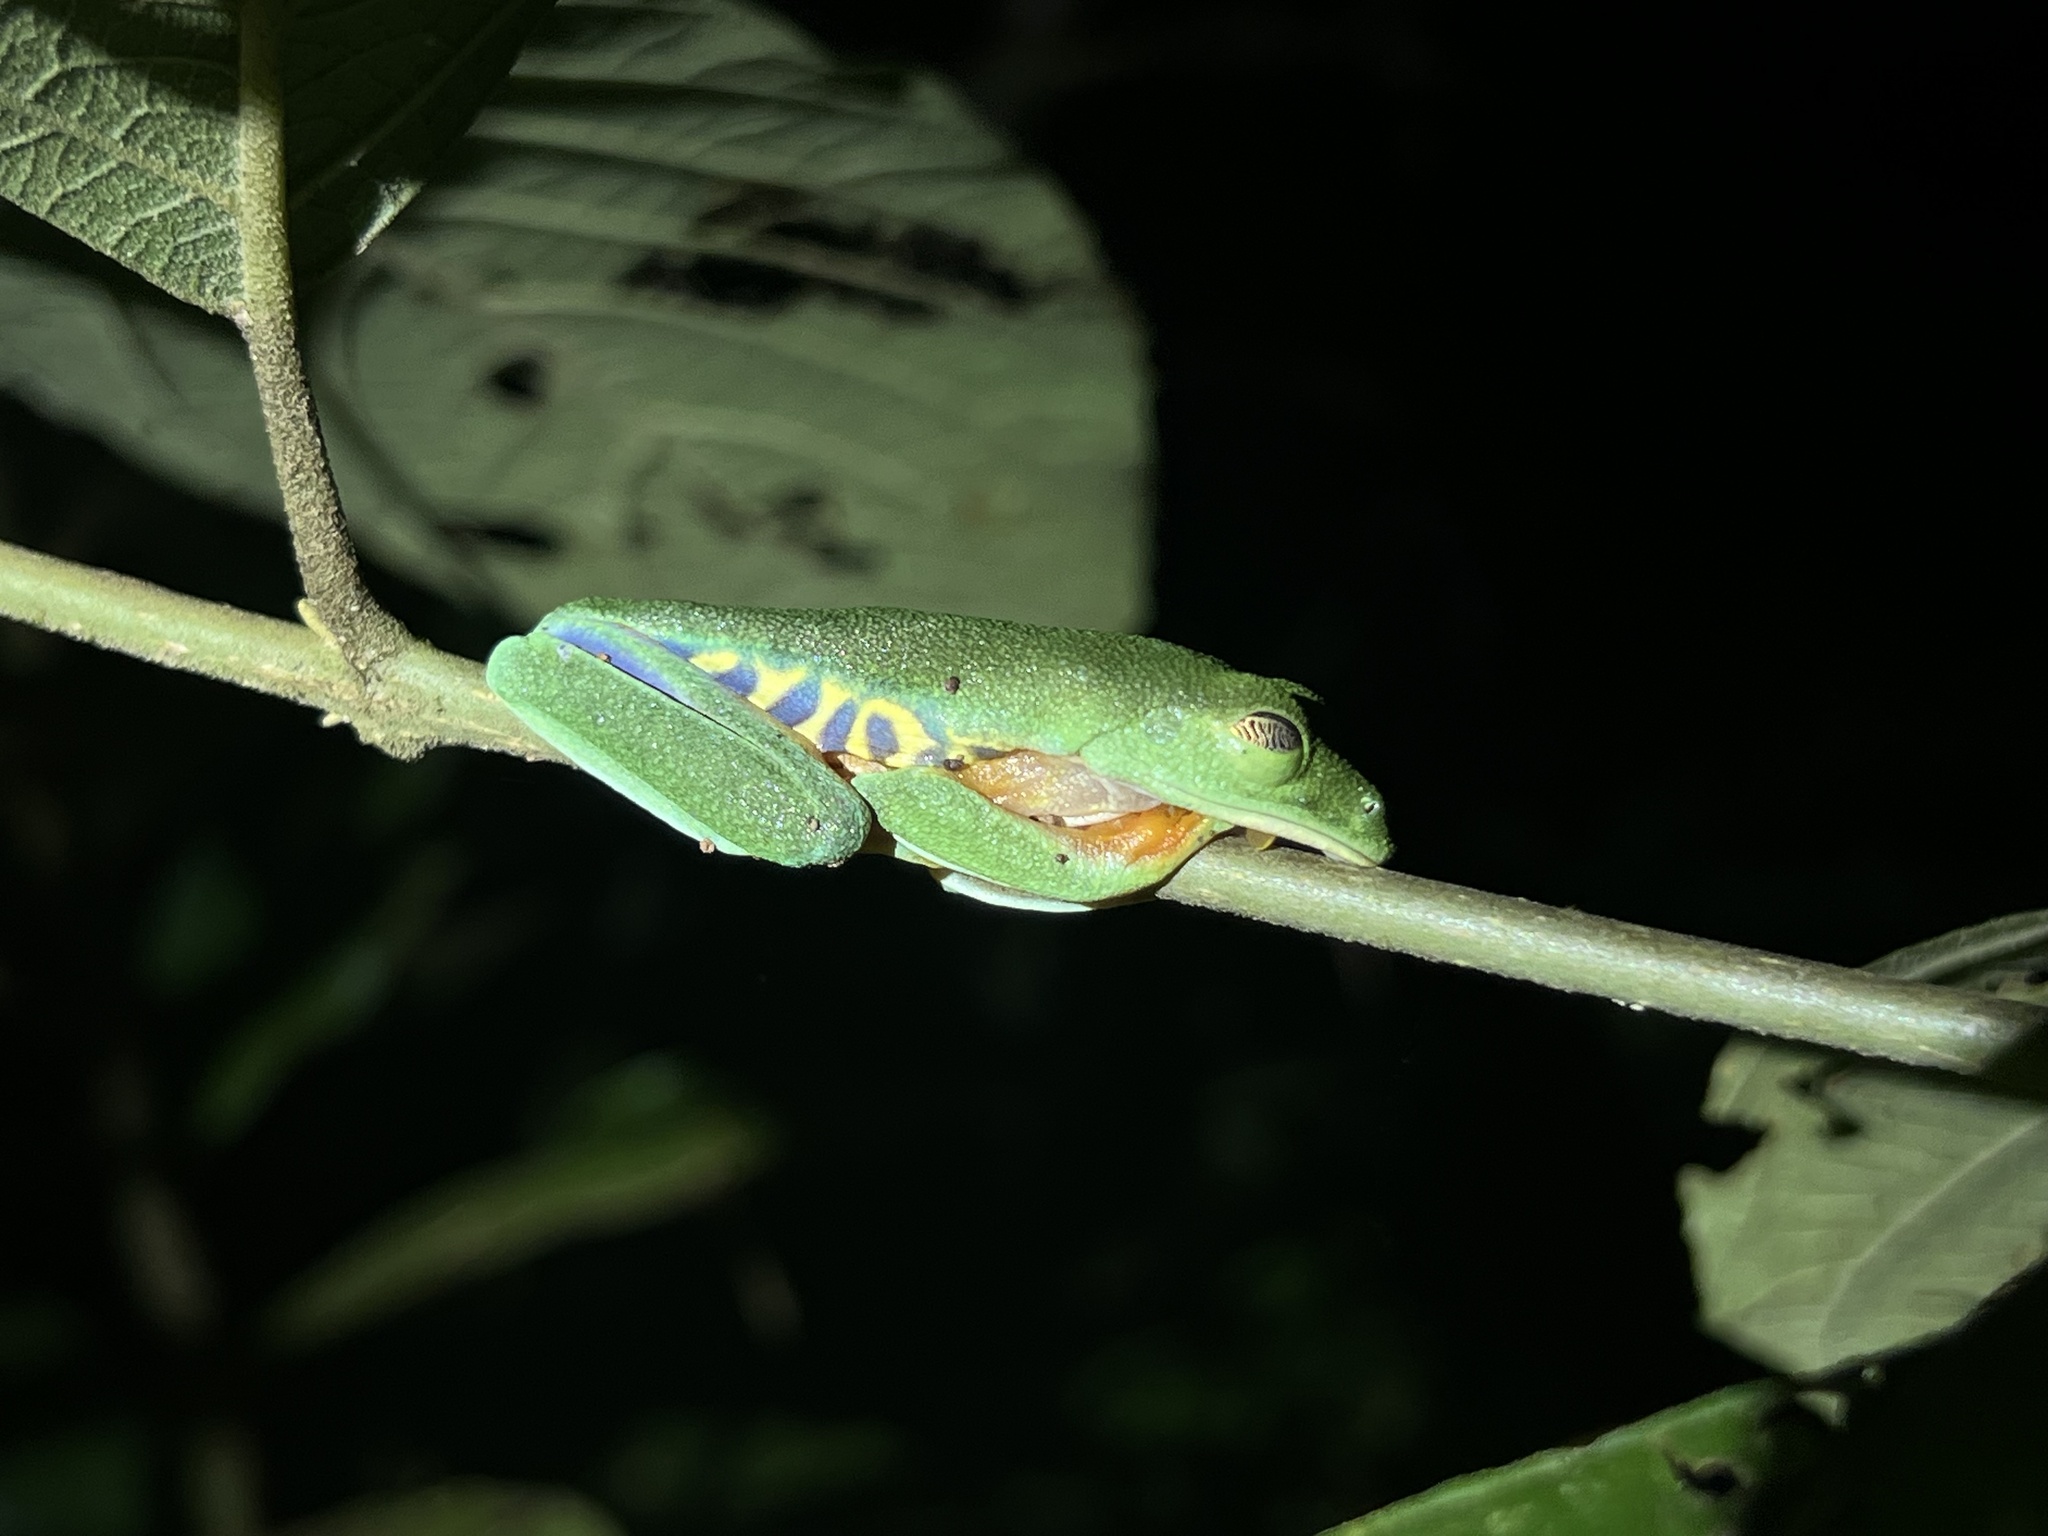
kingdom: Animalia
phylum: Chordata
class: Amphibia
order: Anura
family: Phyllomedusidae
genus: Agalychnis
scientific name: Agalychnis callidryas
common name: Red-eyed treefrog
